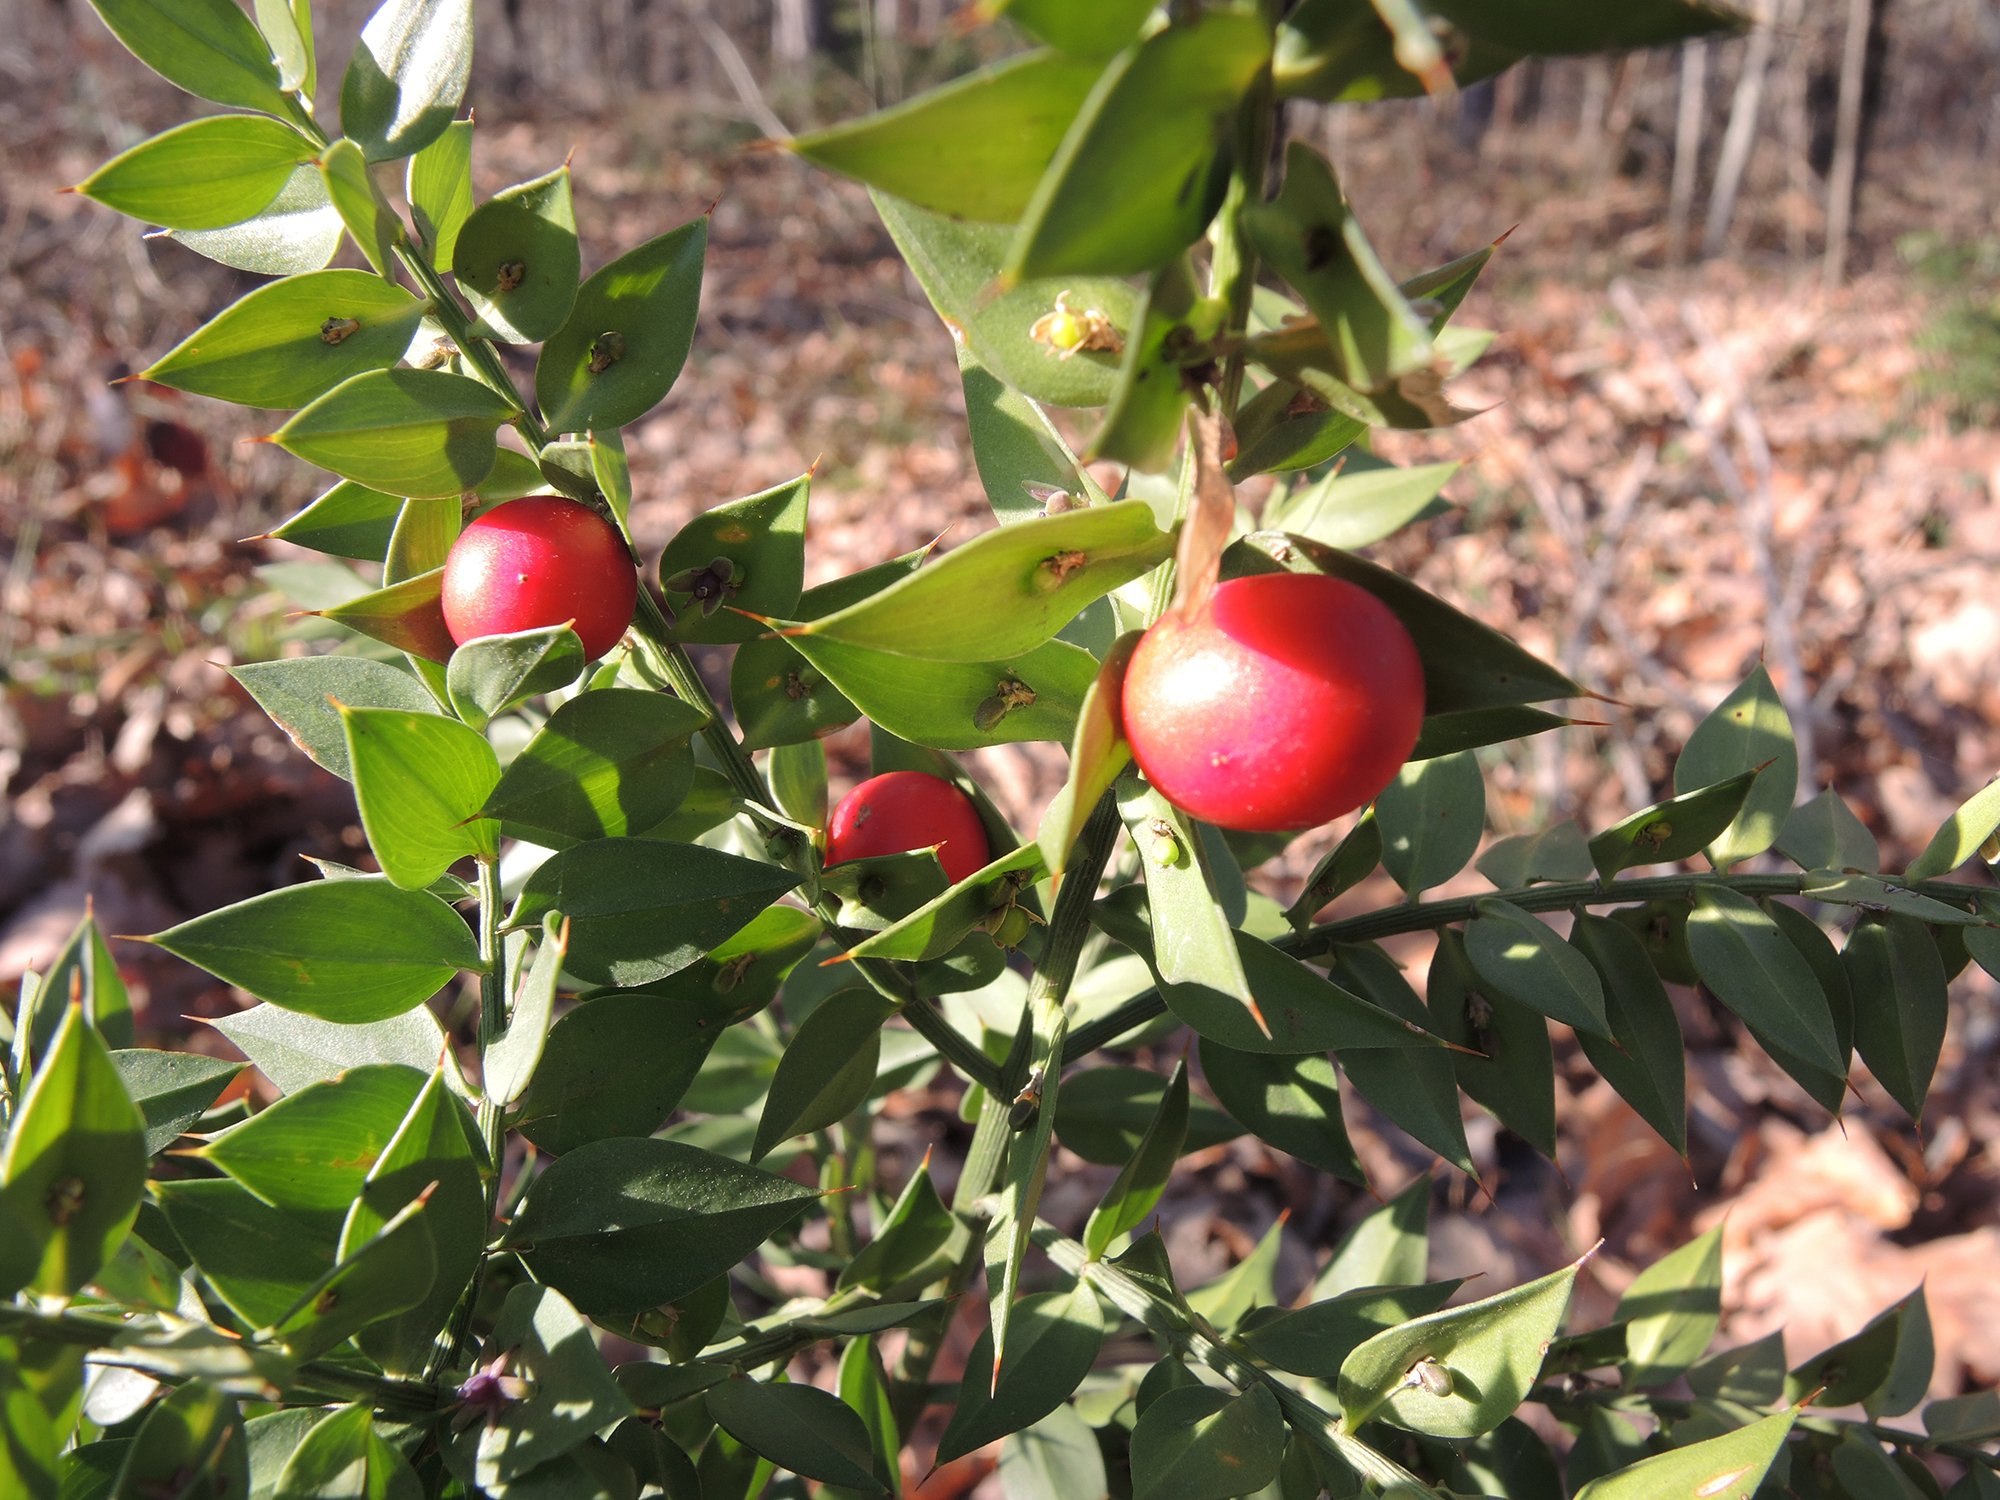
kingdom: Plantae
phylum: Tracheophyta
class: Liliopsida
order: Asparagales
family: Asparagaceae
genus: Ruscus
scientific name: Ruscus aculeatus
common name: Butcher's-broom
